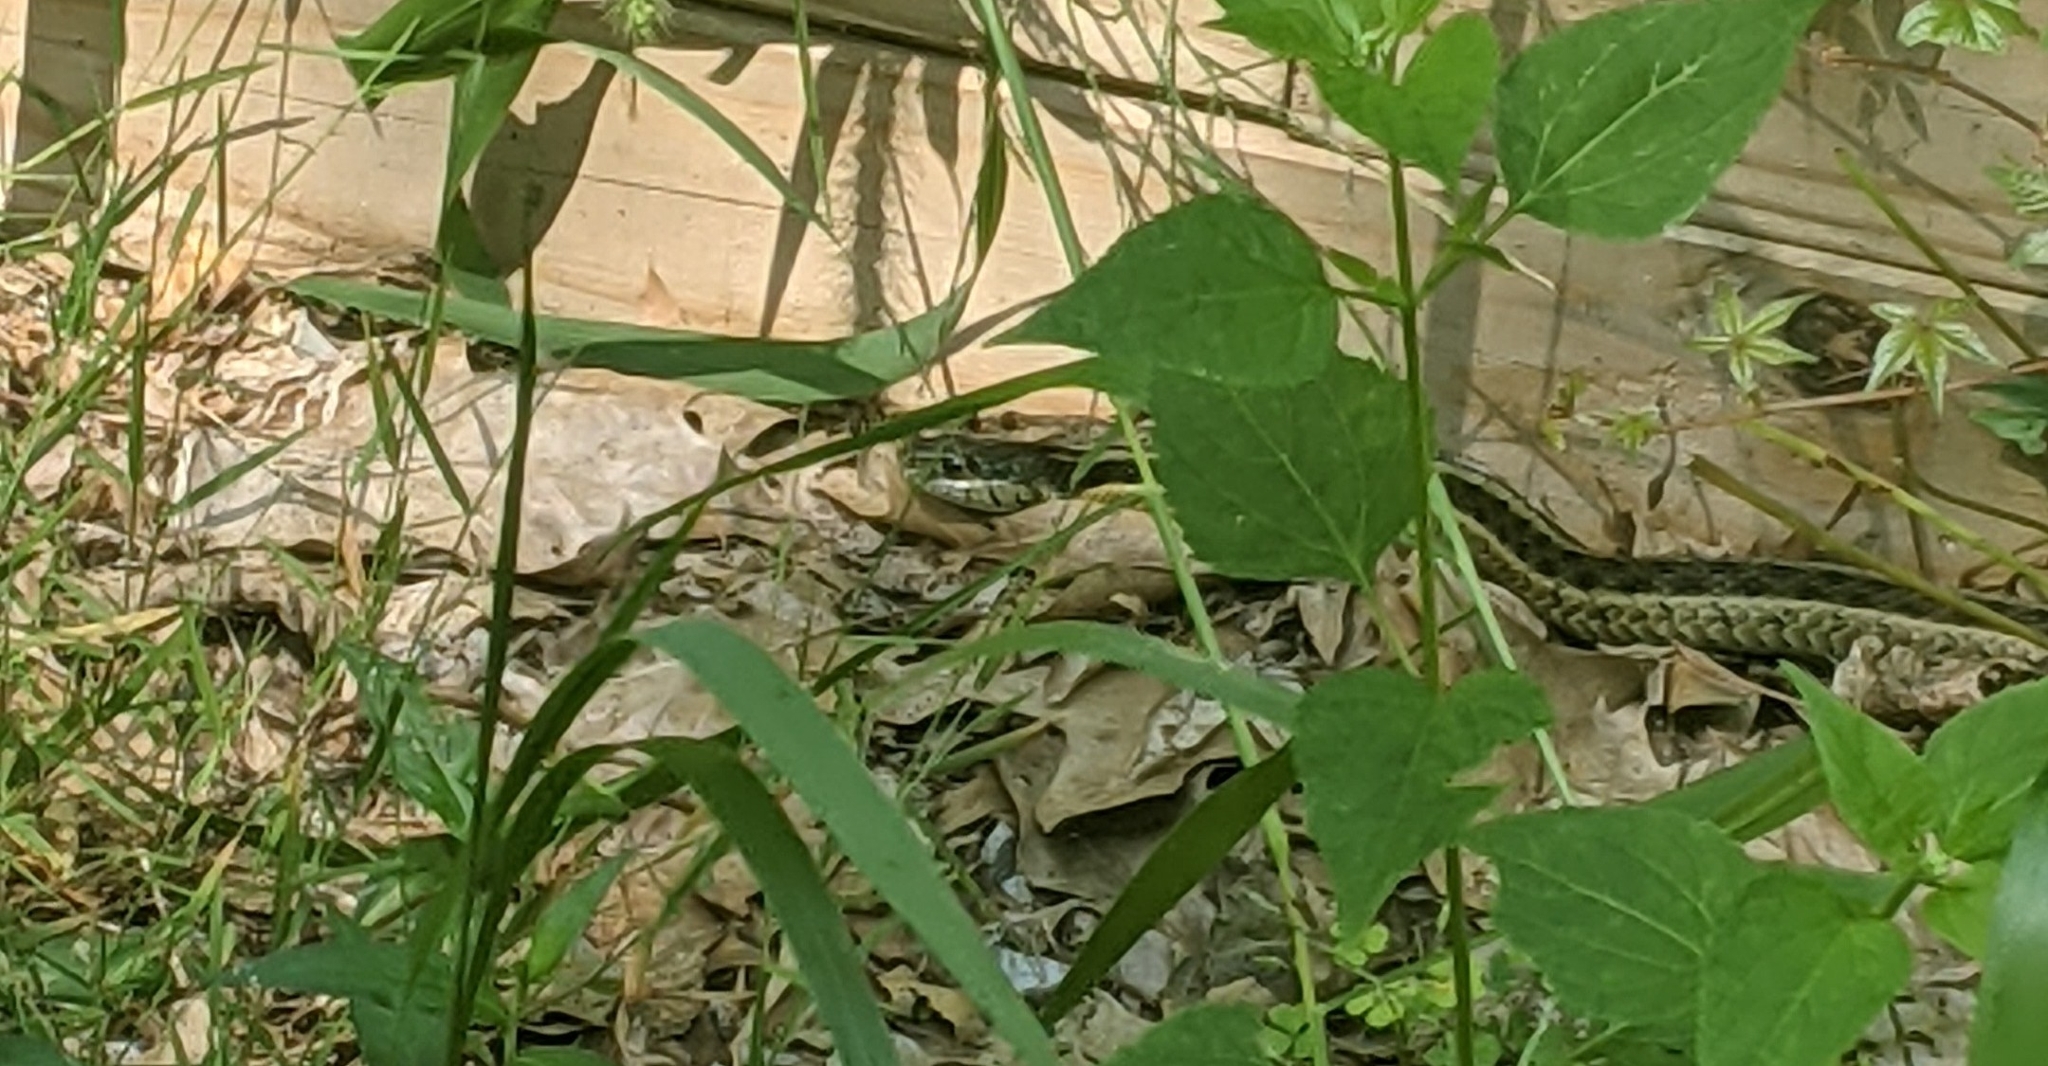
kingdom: Animalia
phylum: Chordata
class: Squamata
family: Colubridae
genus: Thamnophis
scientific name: Thamnophis sirtalis
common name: Common garter snake
